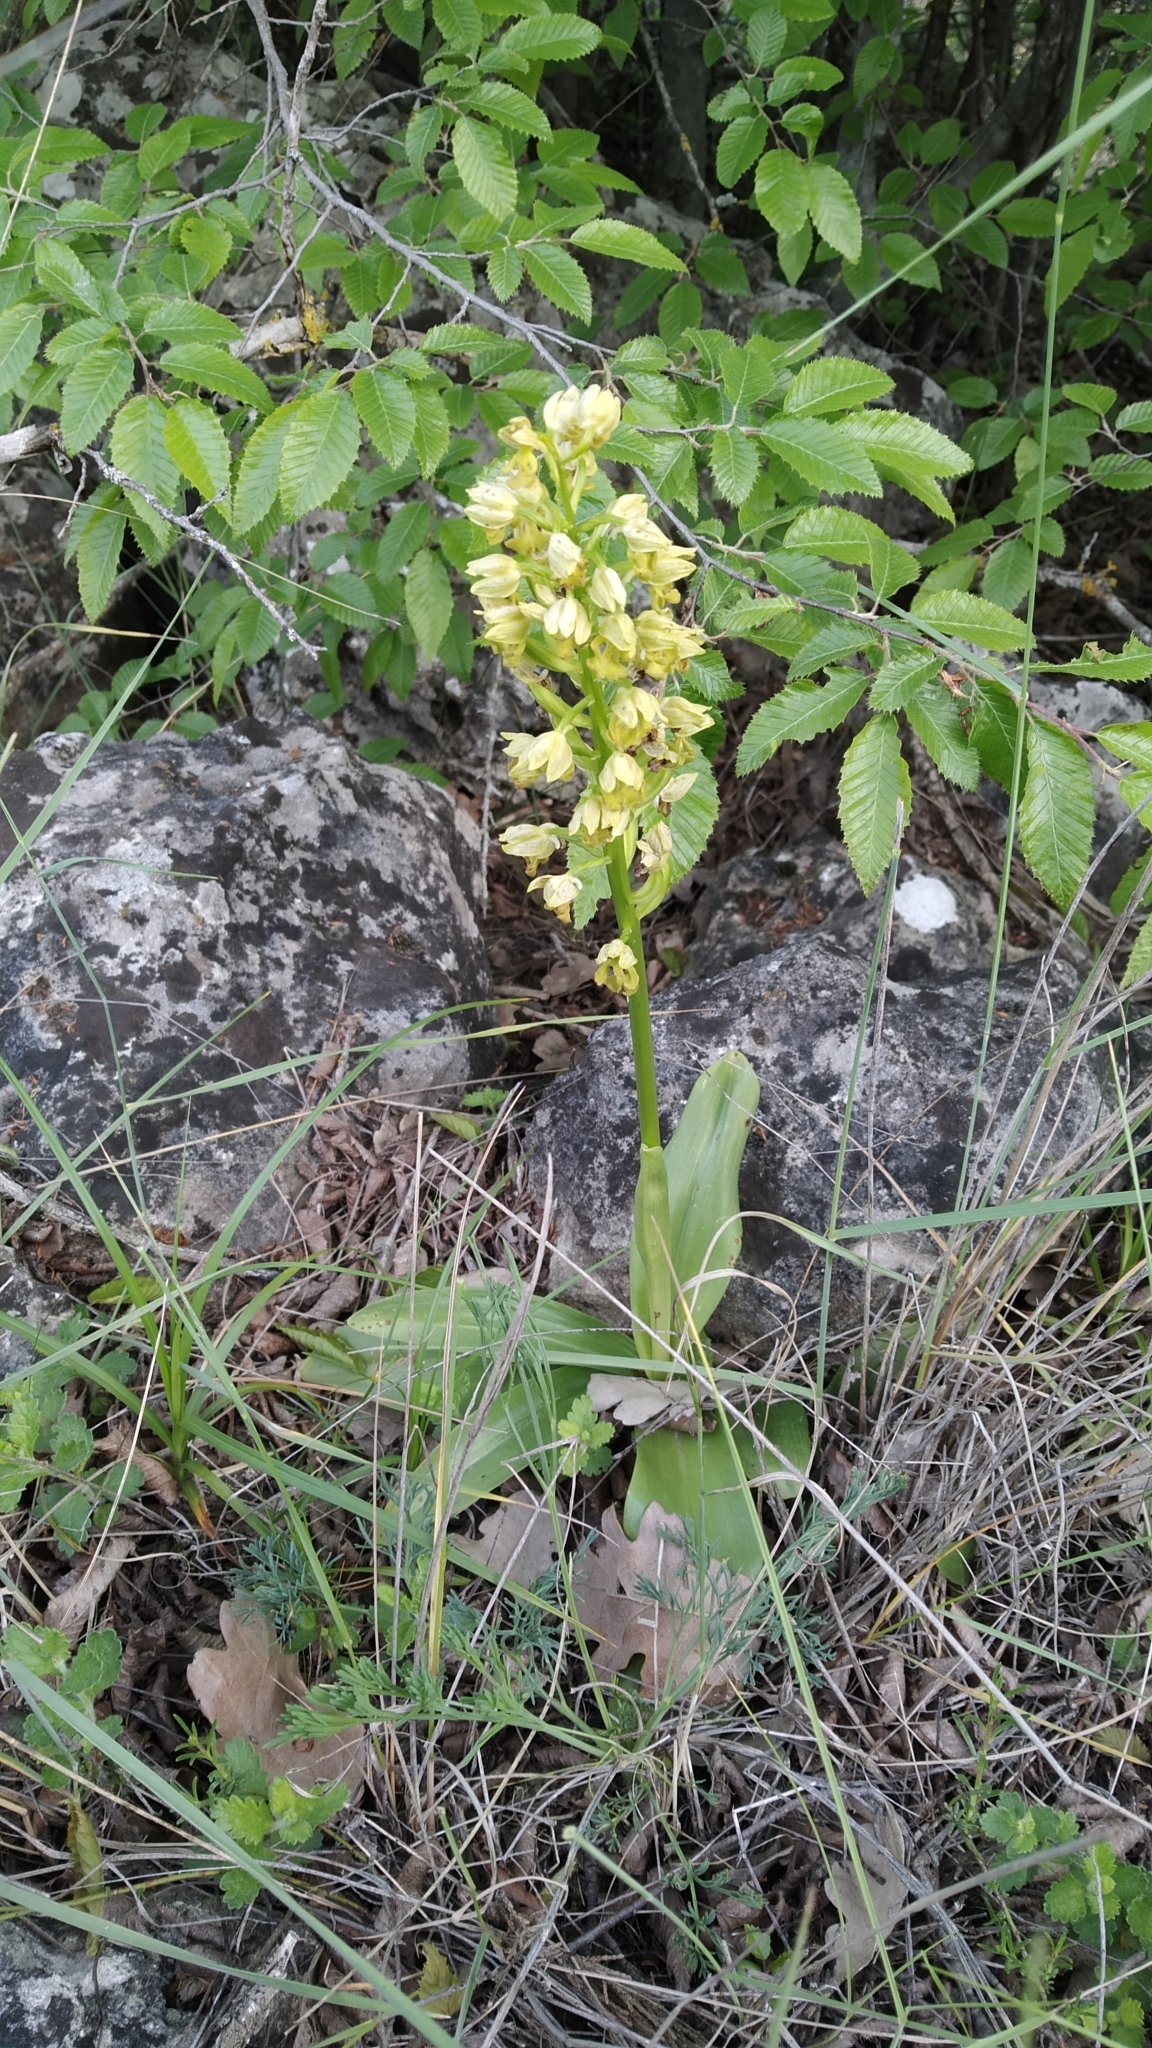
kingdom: Plantae
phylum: Tracheophyta
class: Liliopsida
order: Asparagales
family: Orchidaceae
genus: Orchis
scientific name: Orchis punctulata
